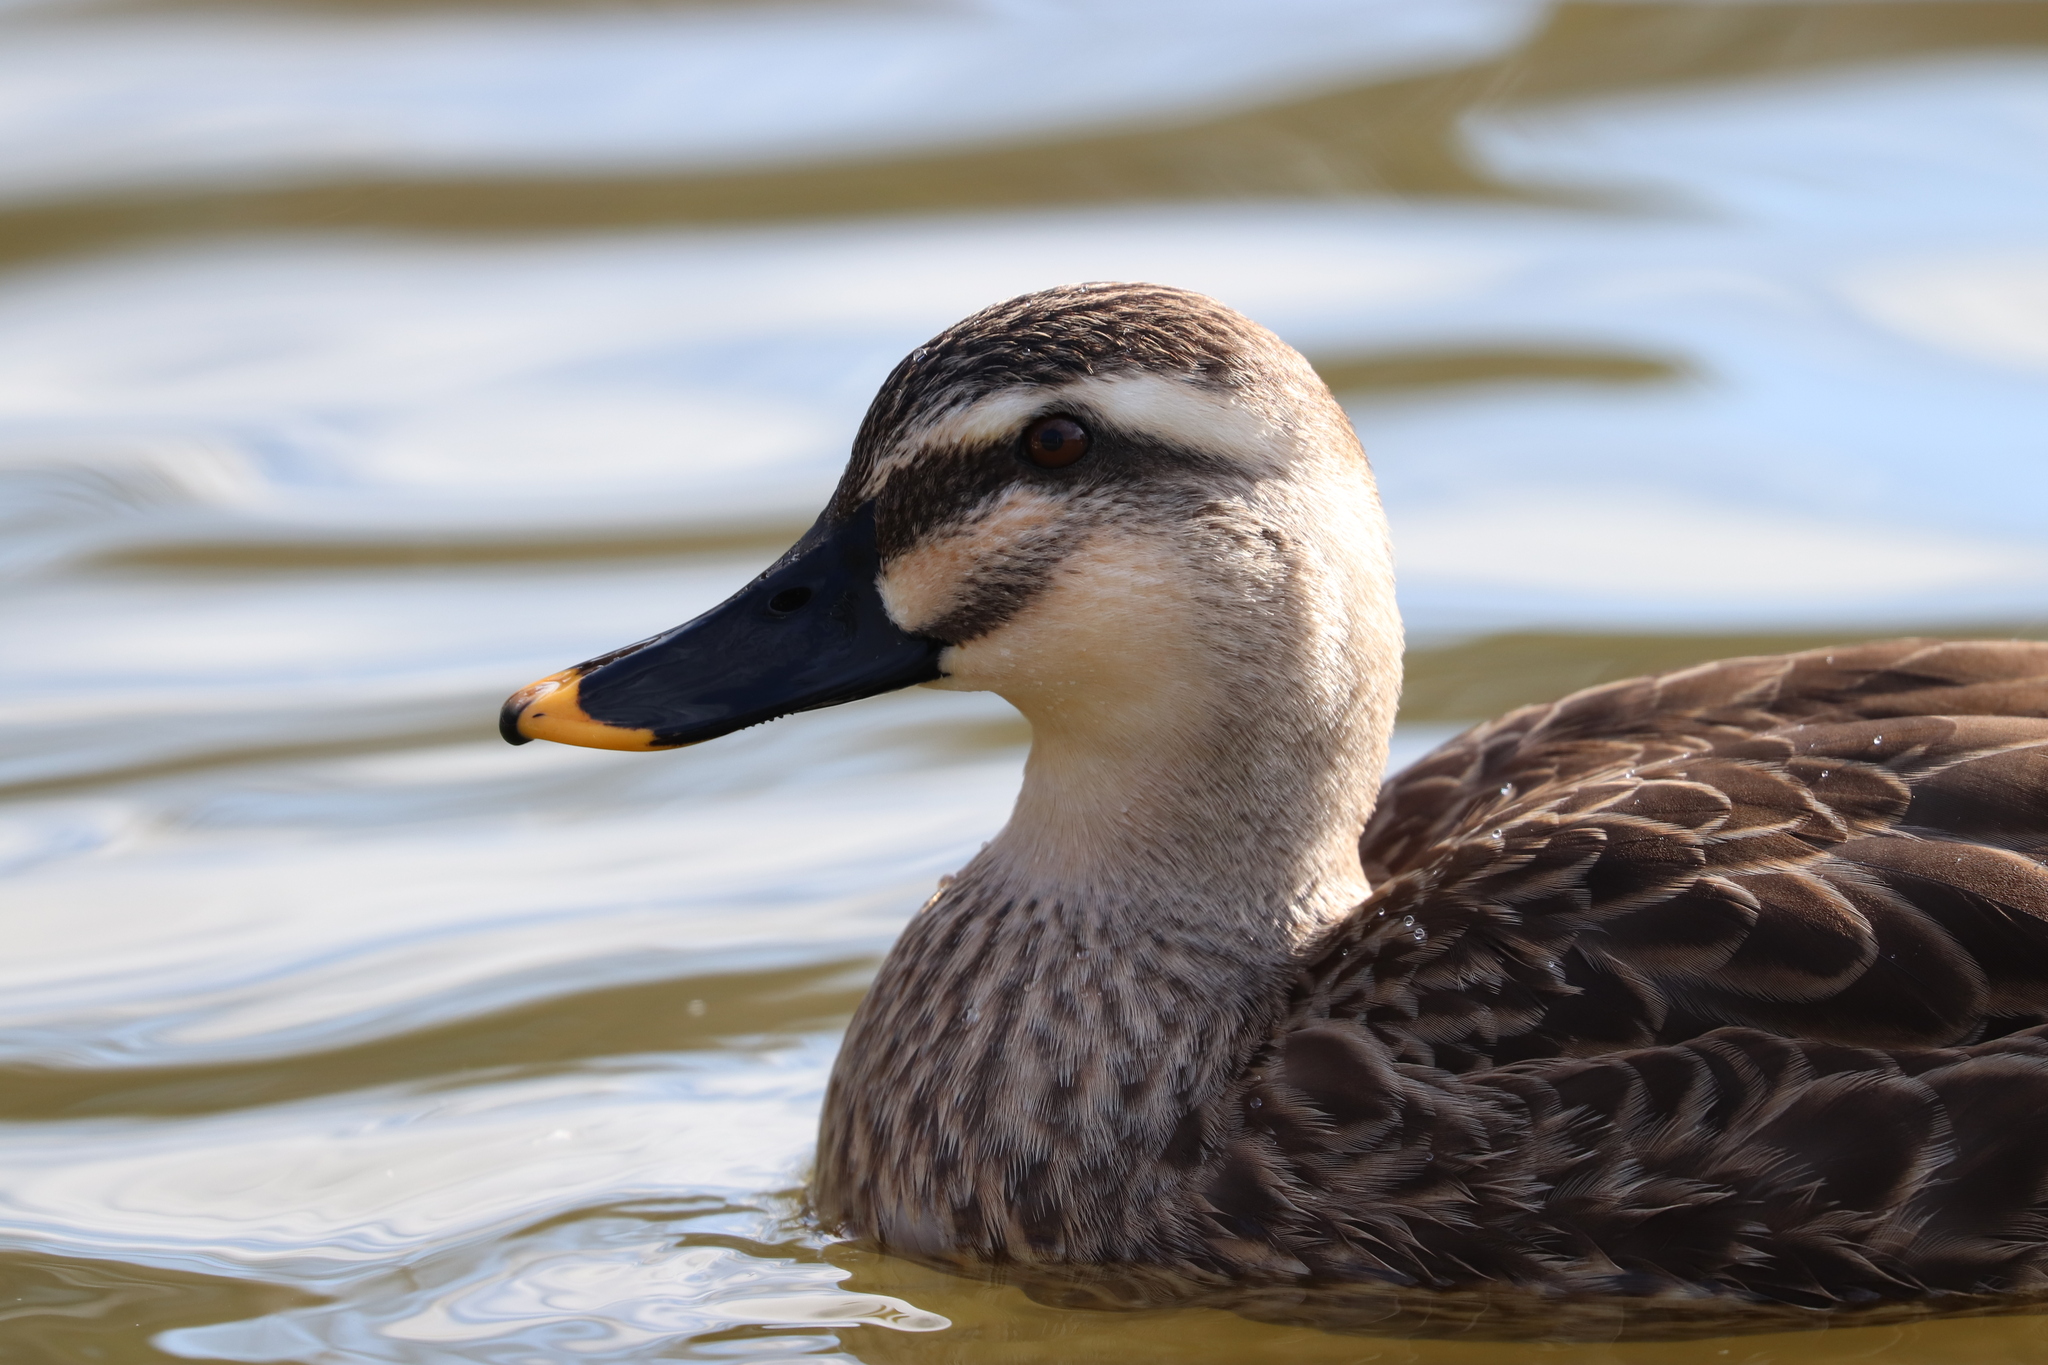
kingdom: Animalia
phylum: Chordata
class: Aves
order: Anseriformes
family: Anatidae
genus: Anas
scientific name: Anas zonorhyncha
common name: Eastern spot-billed duck
